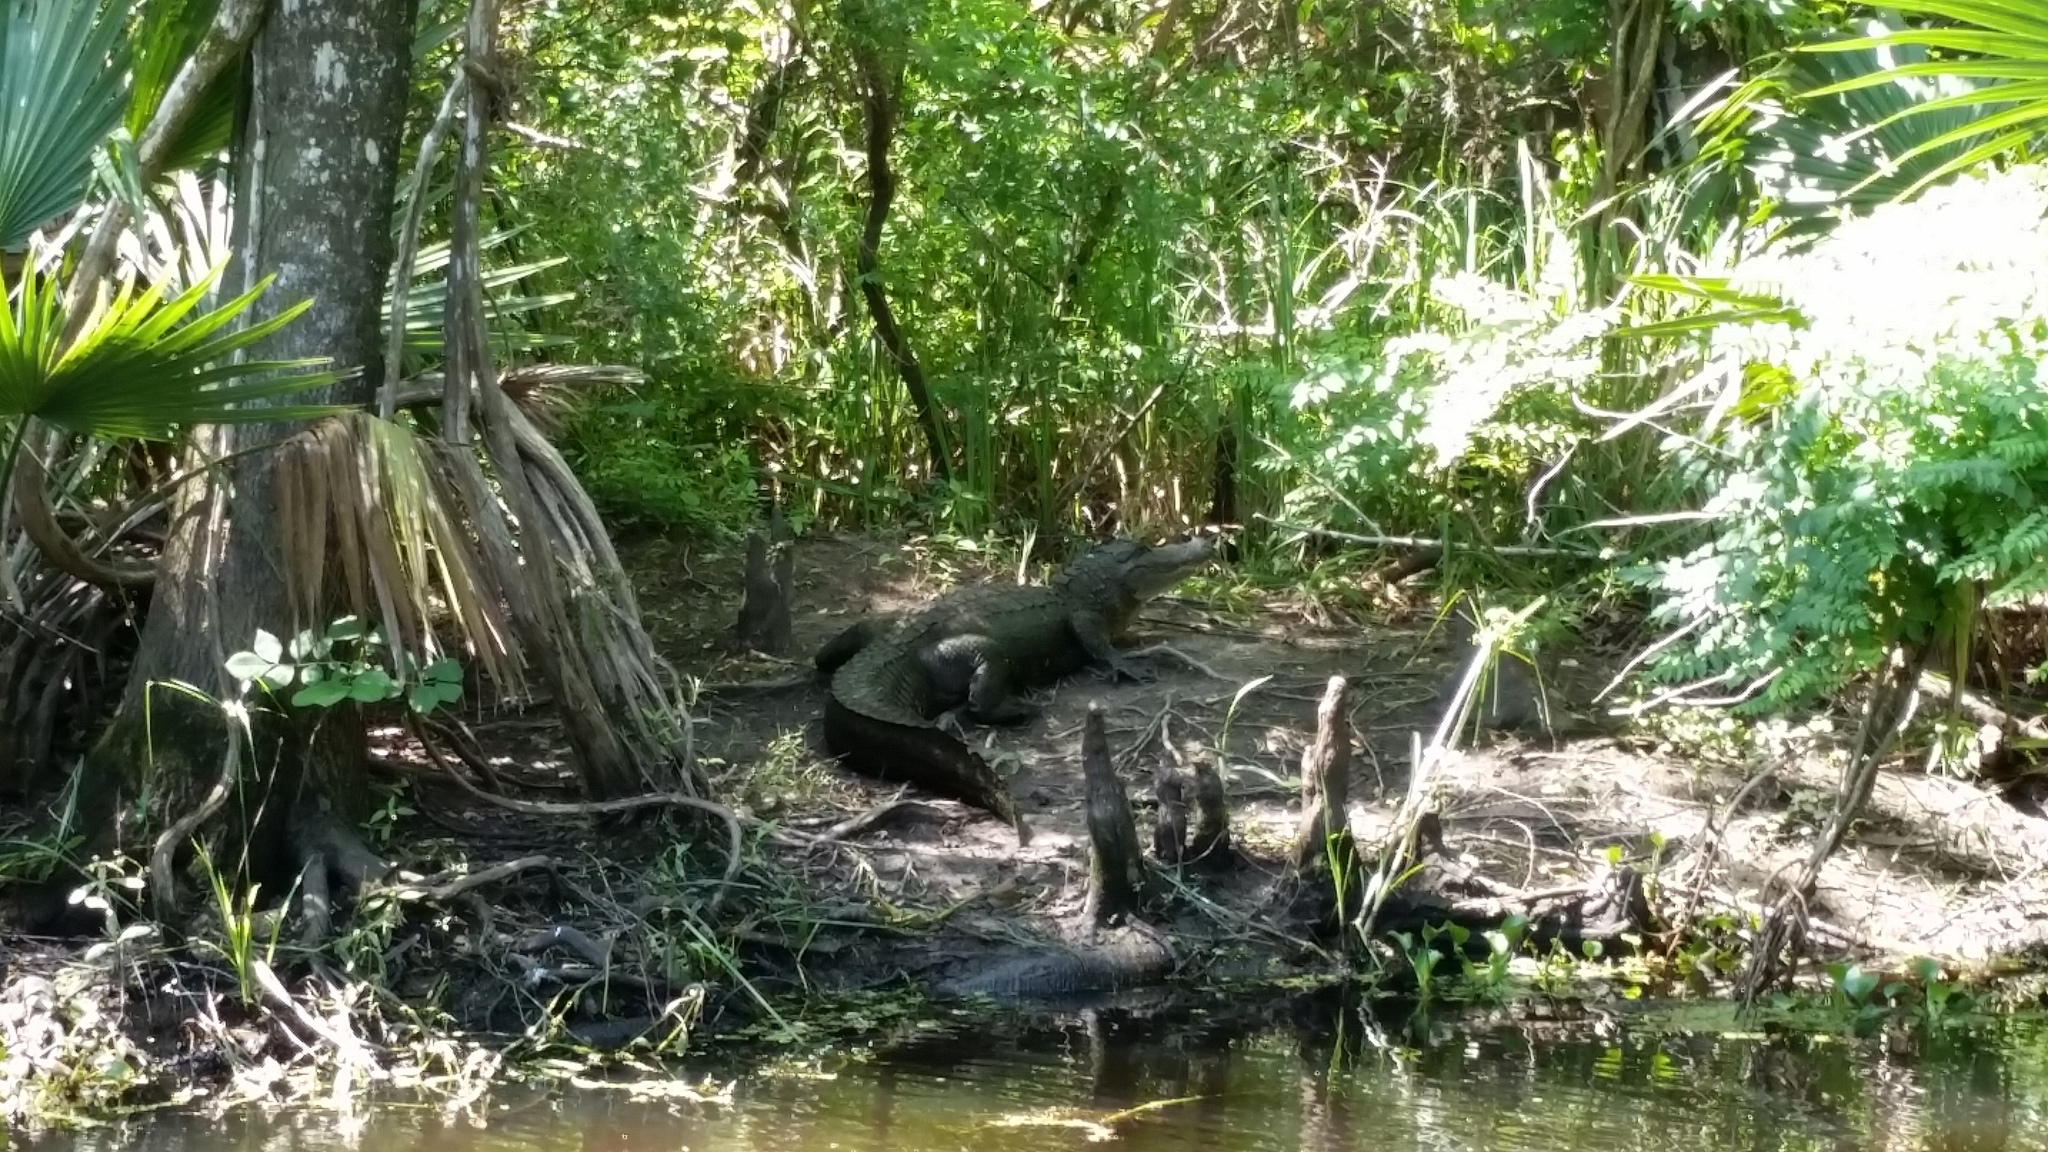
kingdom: Animalia
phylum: Chordata
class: Crocodylia
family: Alligatoridae
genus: Alligator
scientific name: Alligator mississippiensis
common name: American alligator
